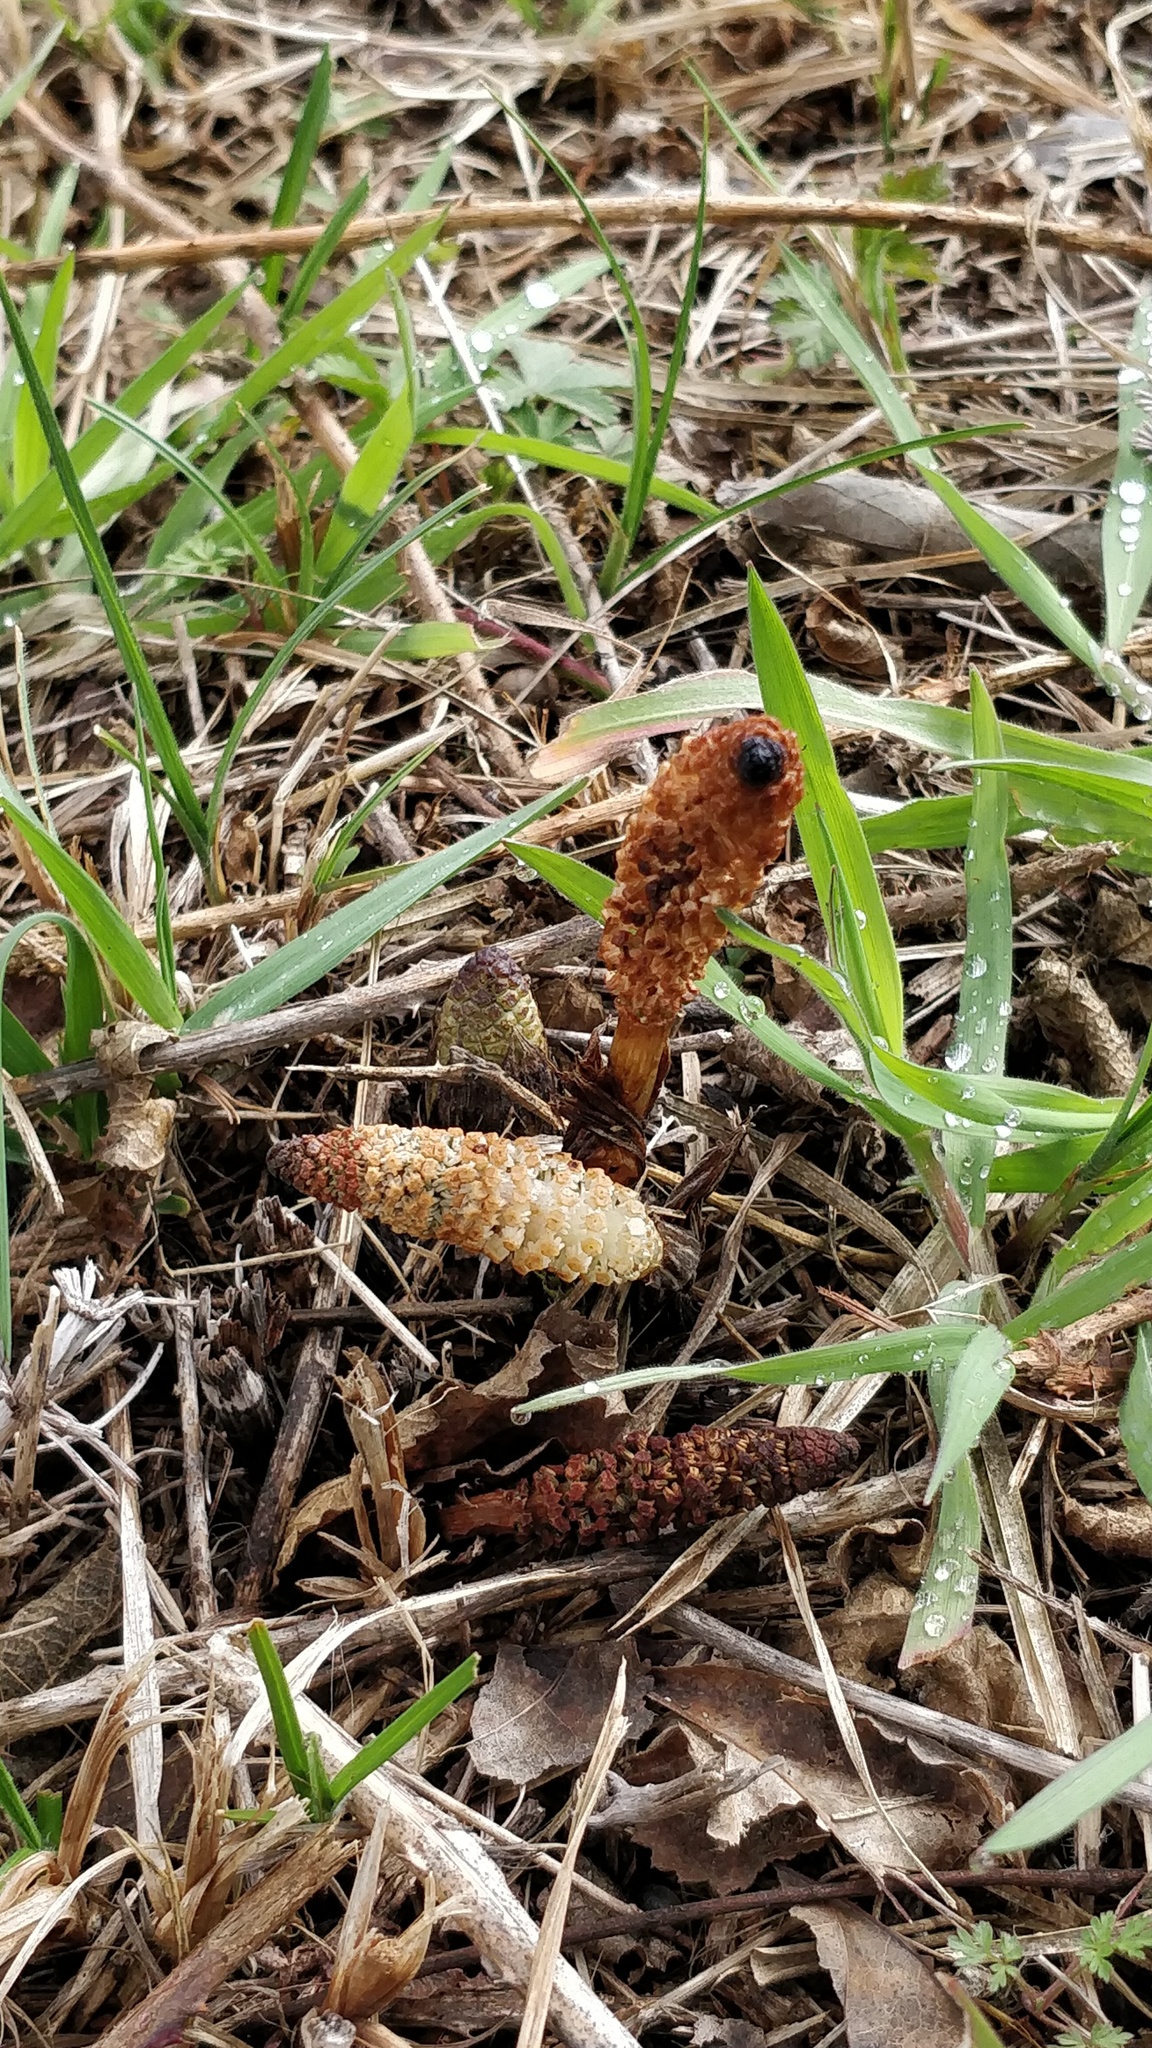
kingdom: Plantae
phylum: Tracheophyta
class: Polypodiopsida
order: Equisetales
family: Equisetaceae
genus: Equisetum
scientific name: Equisetum arvense
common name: Field horsetail
